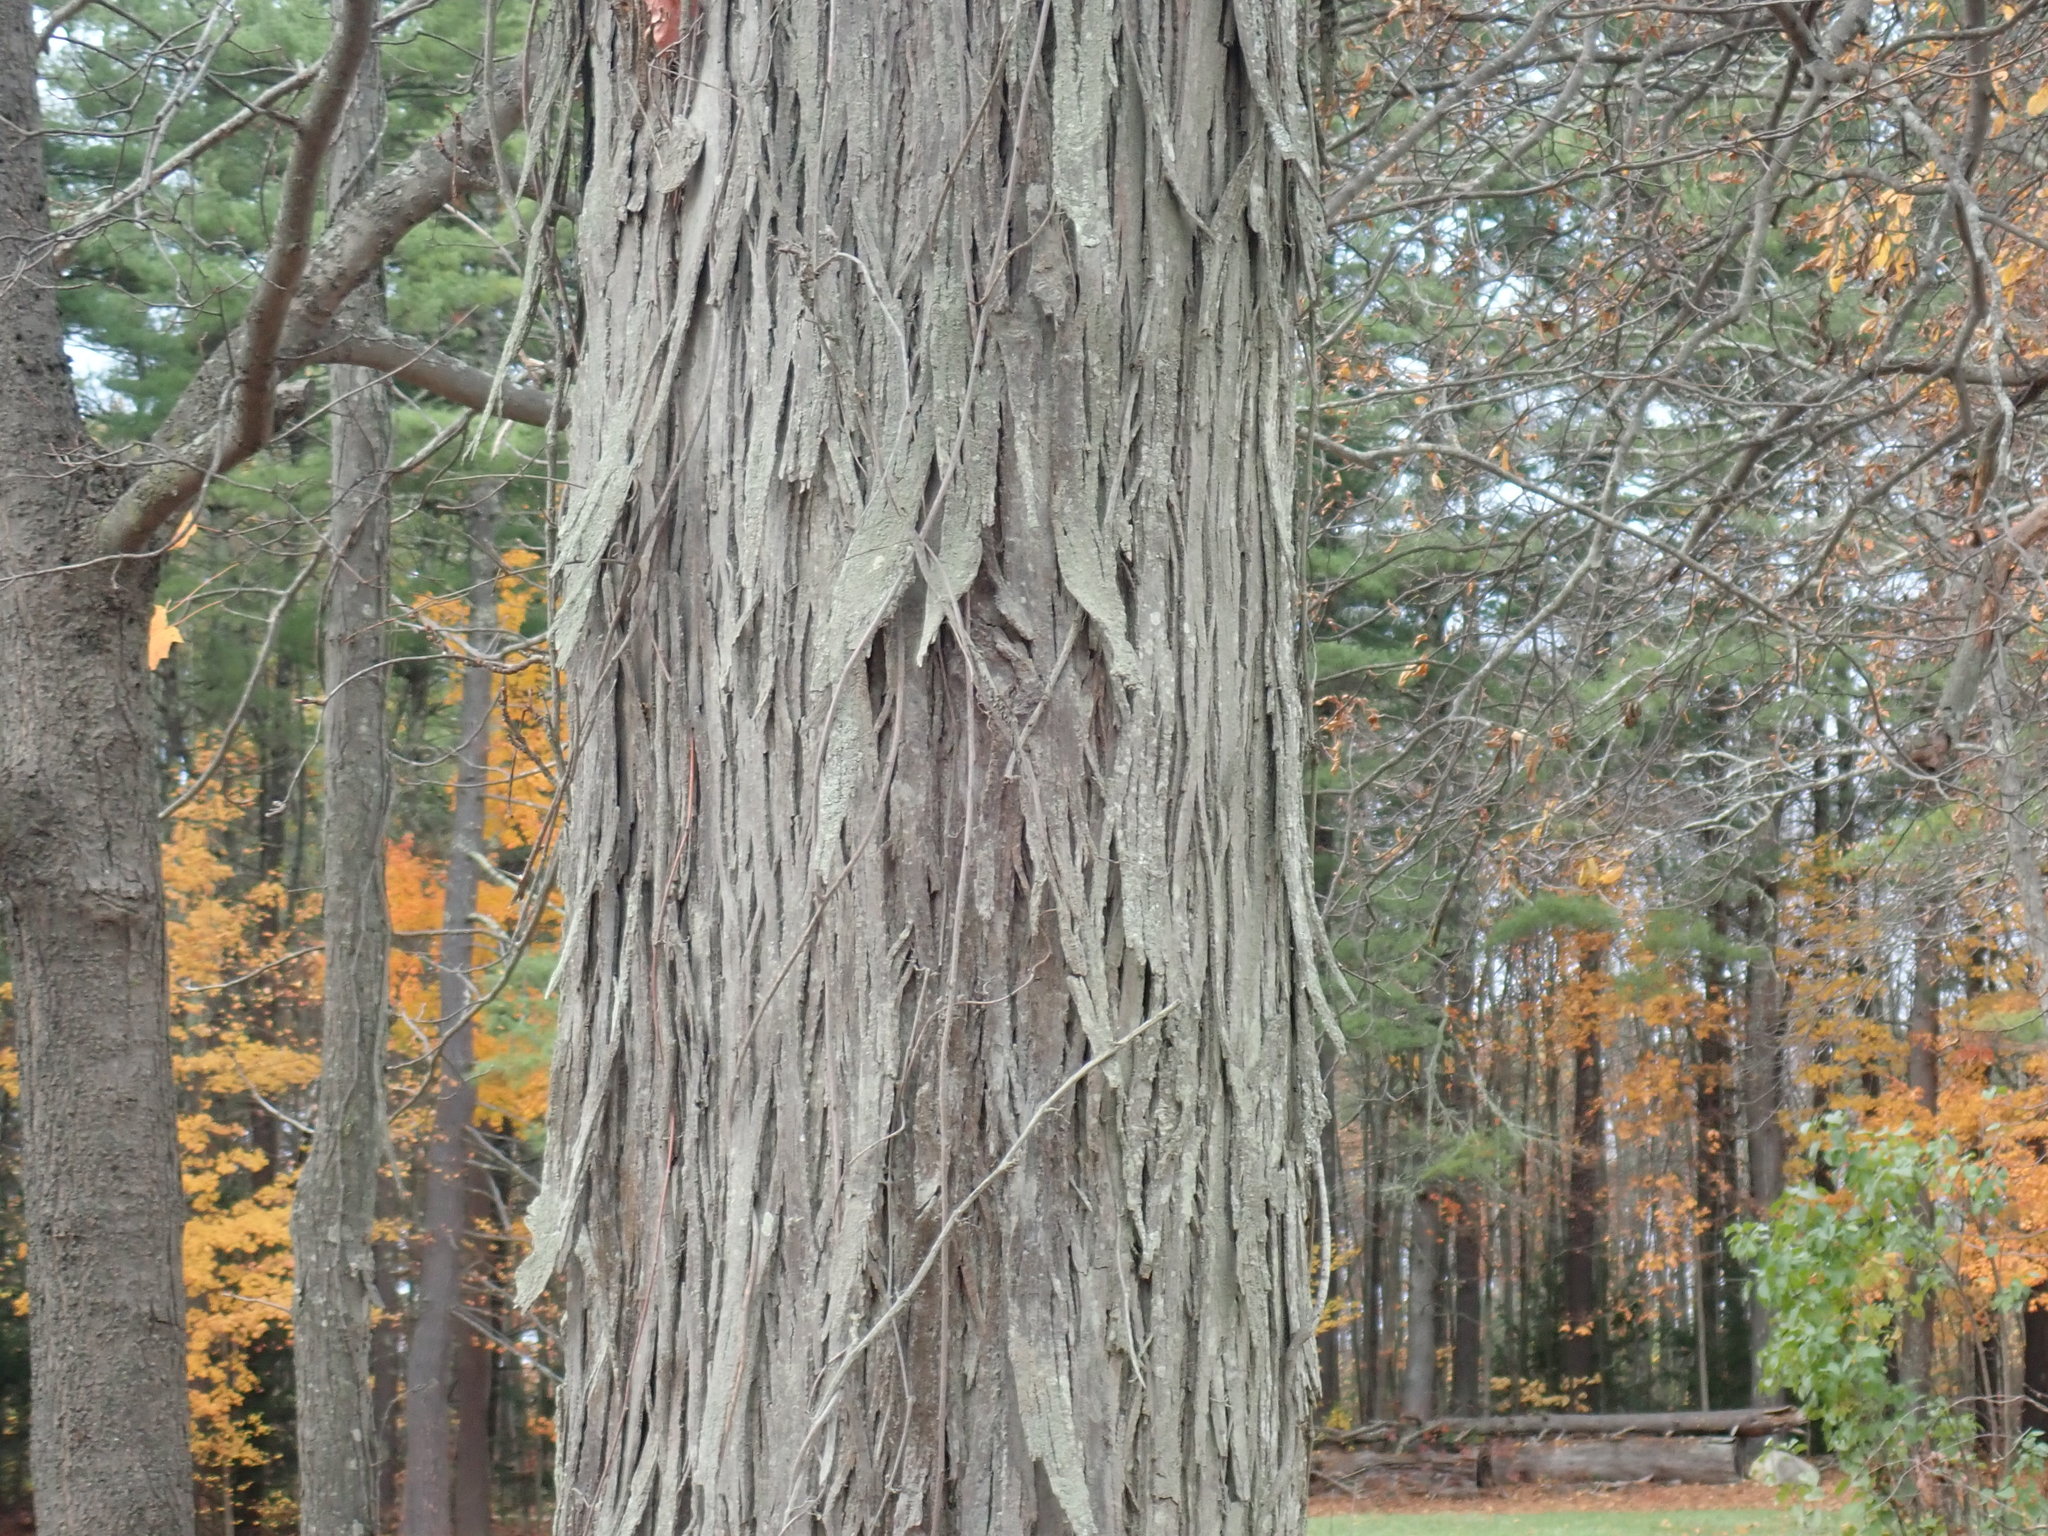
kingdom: Plantae
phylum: Tracheophyta
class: Magnoliopsida
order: Fagales
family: Juglandaceae
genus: Carya
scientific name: Carya ovata
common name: Shagbark hickory
